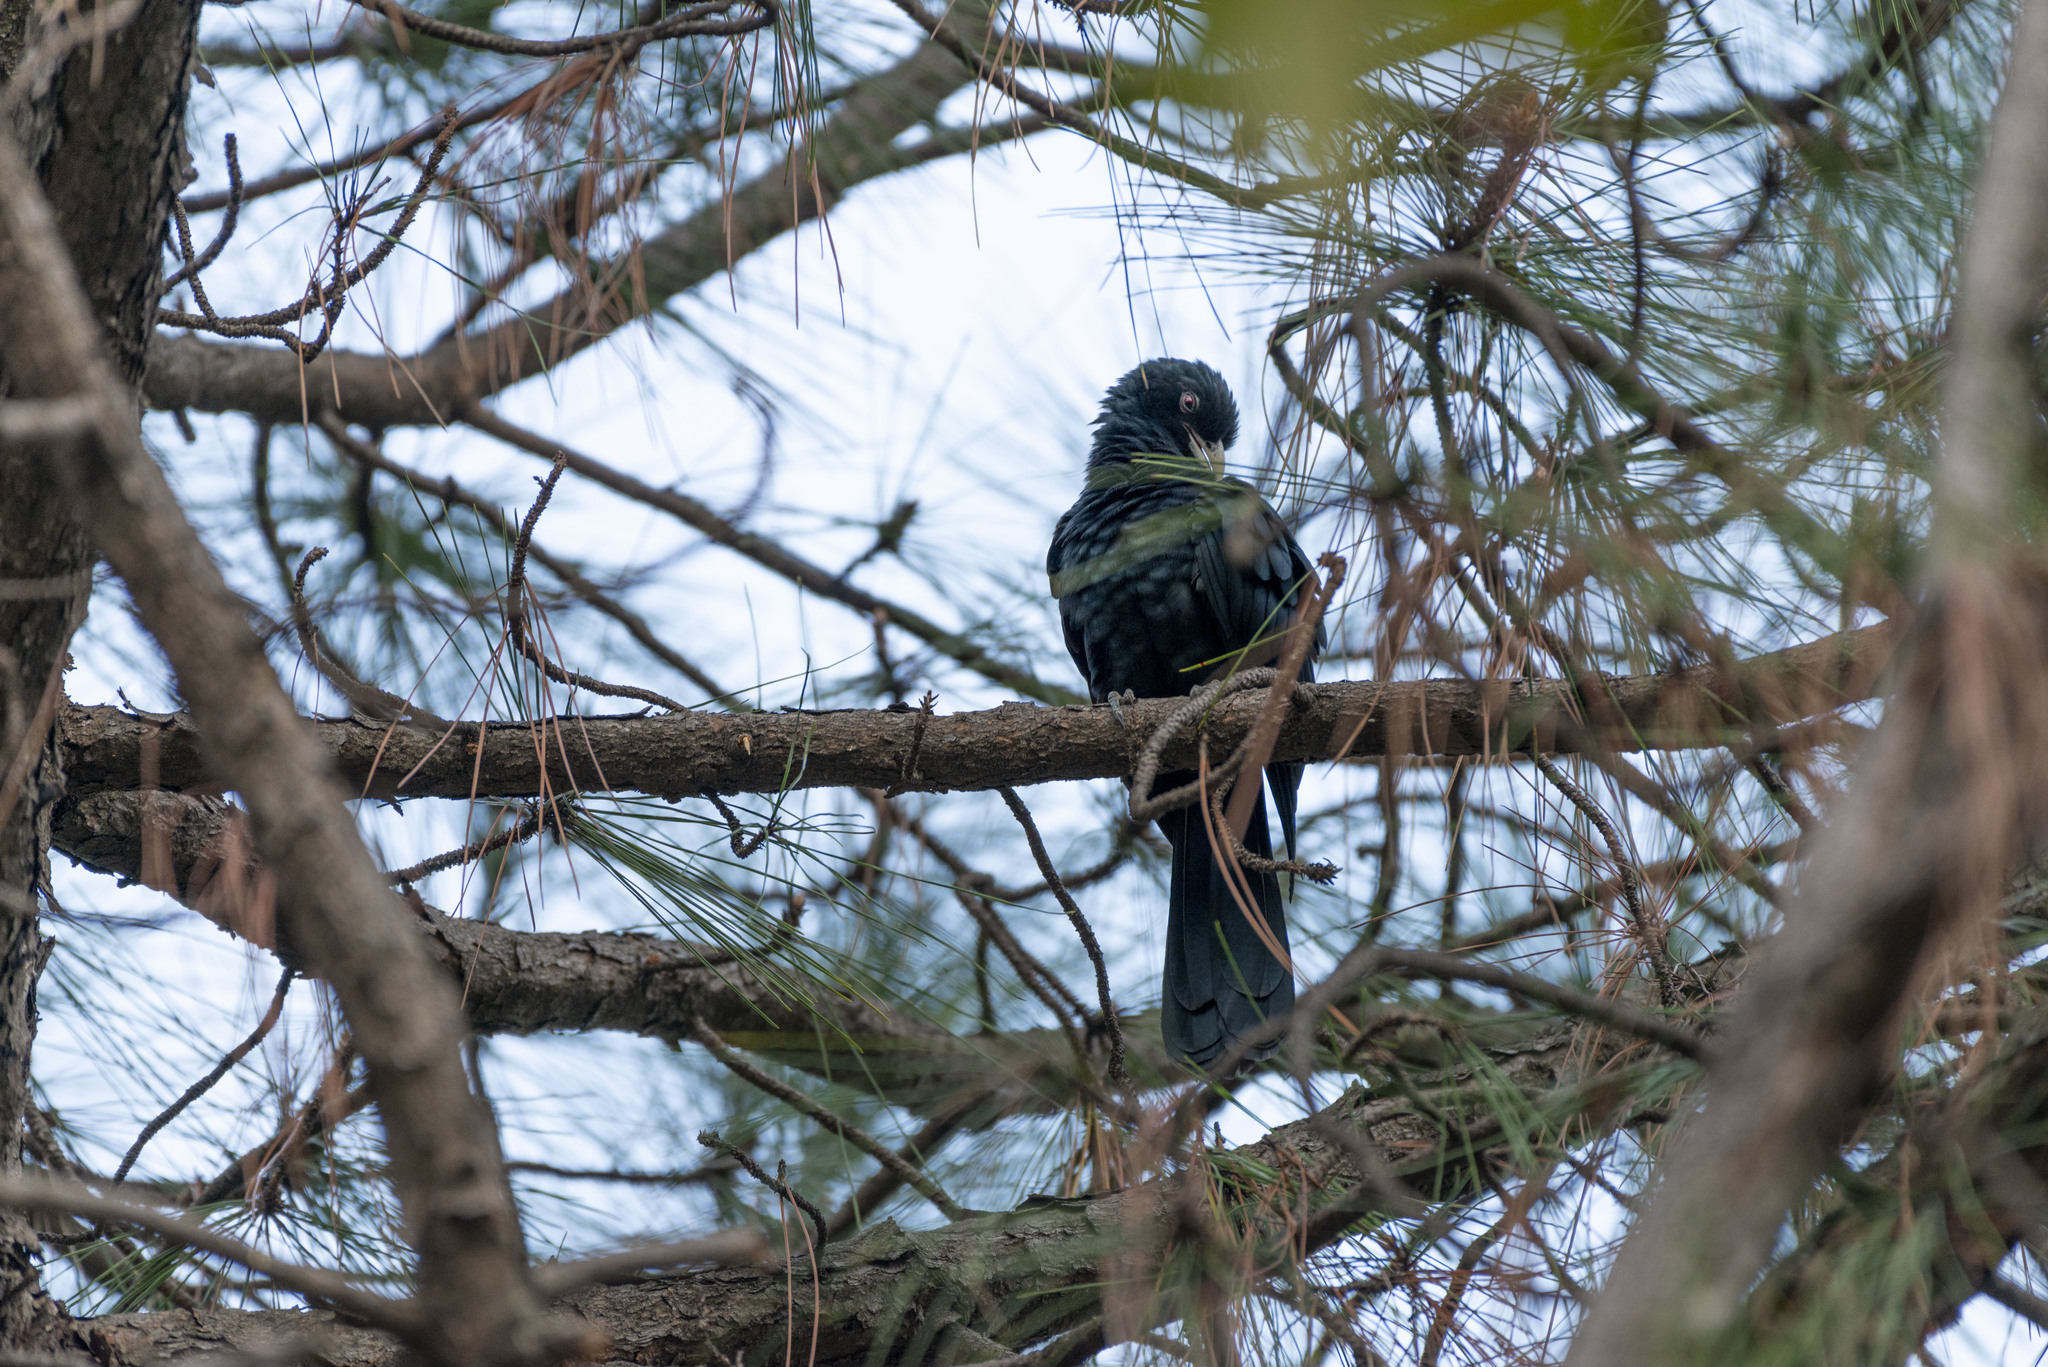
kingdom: Animalia
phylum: Chordata
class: Aves
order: Cuculiformes
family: Cuculidae
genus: Eudynamys
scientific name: Eudynamys scolopaceus
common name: Asian koel
